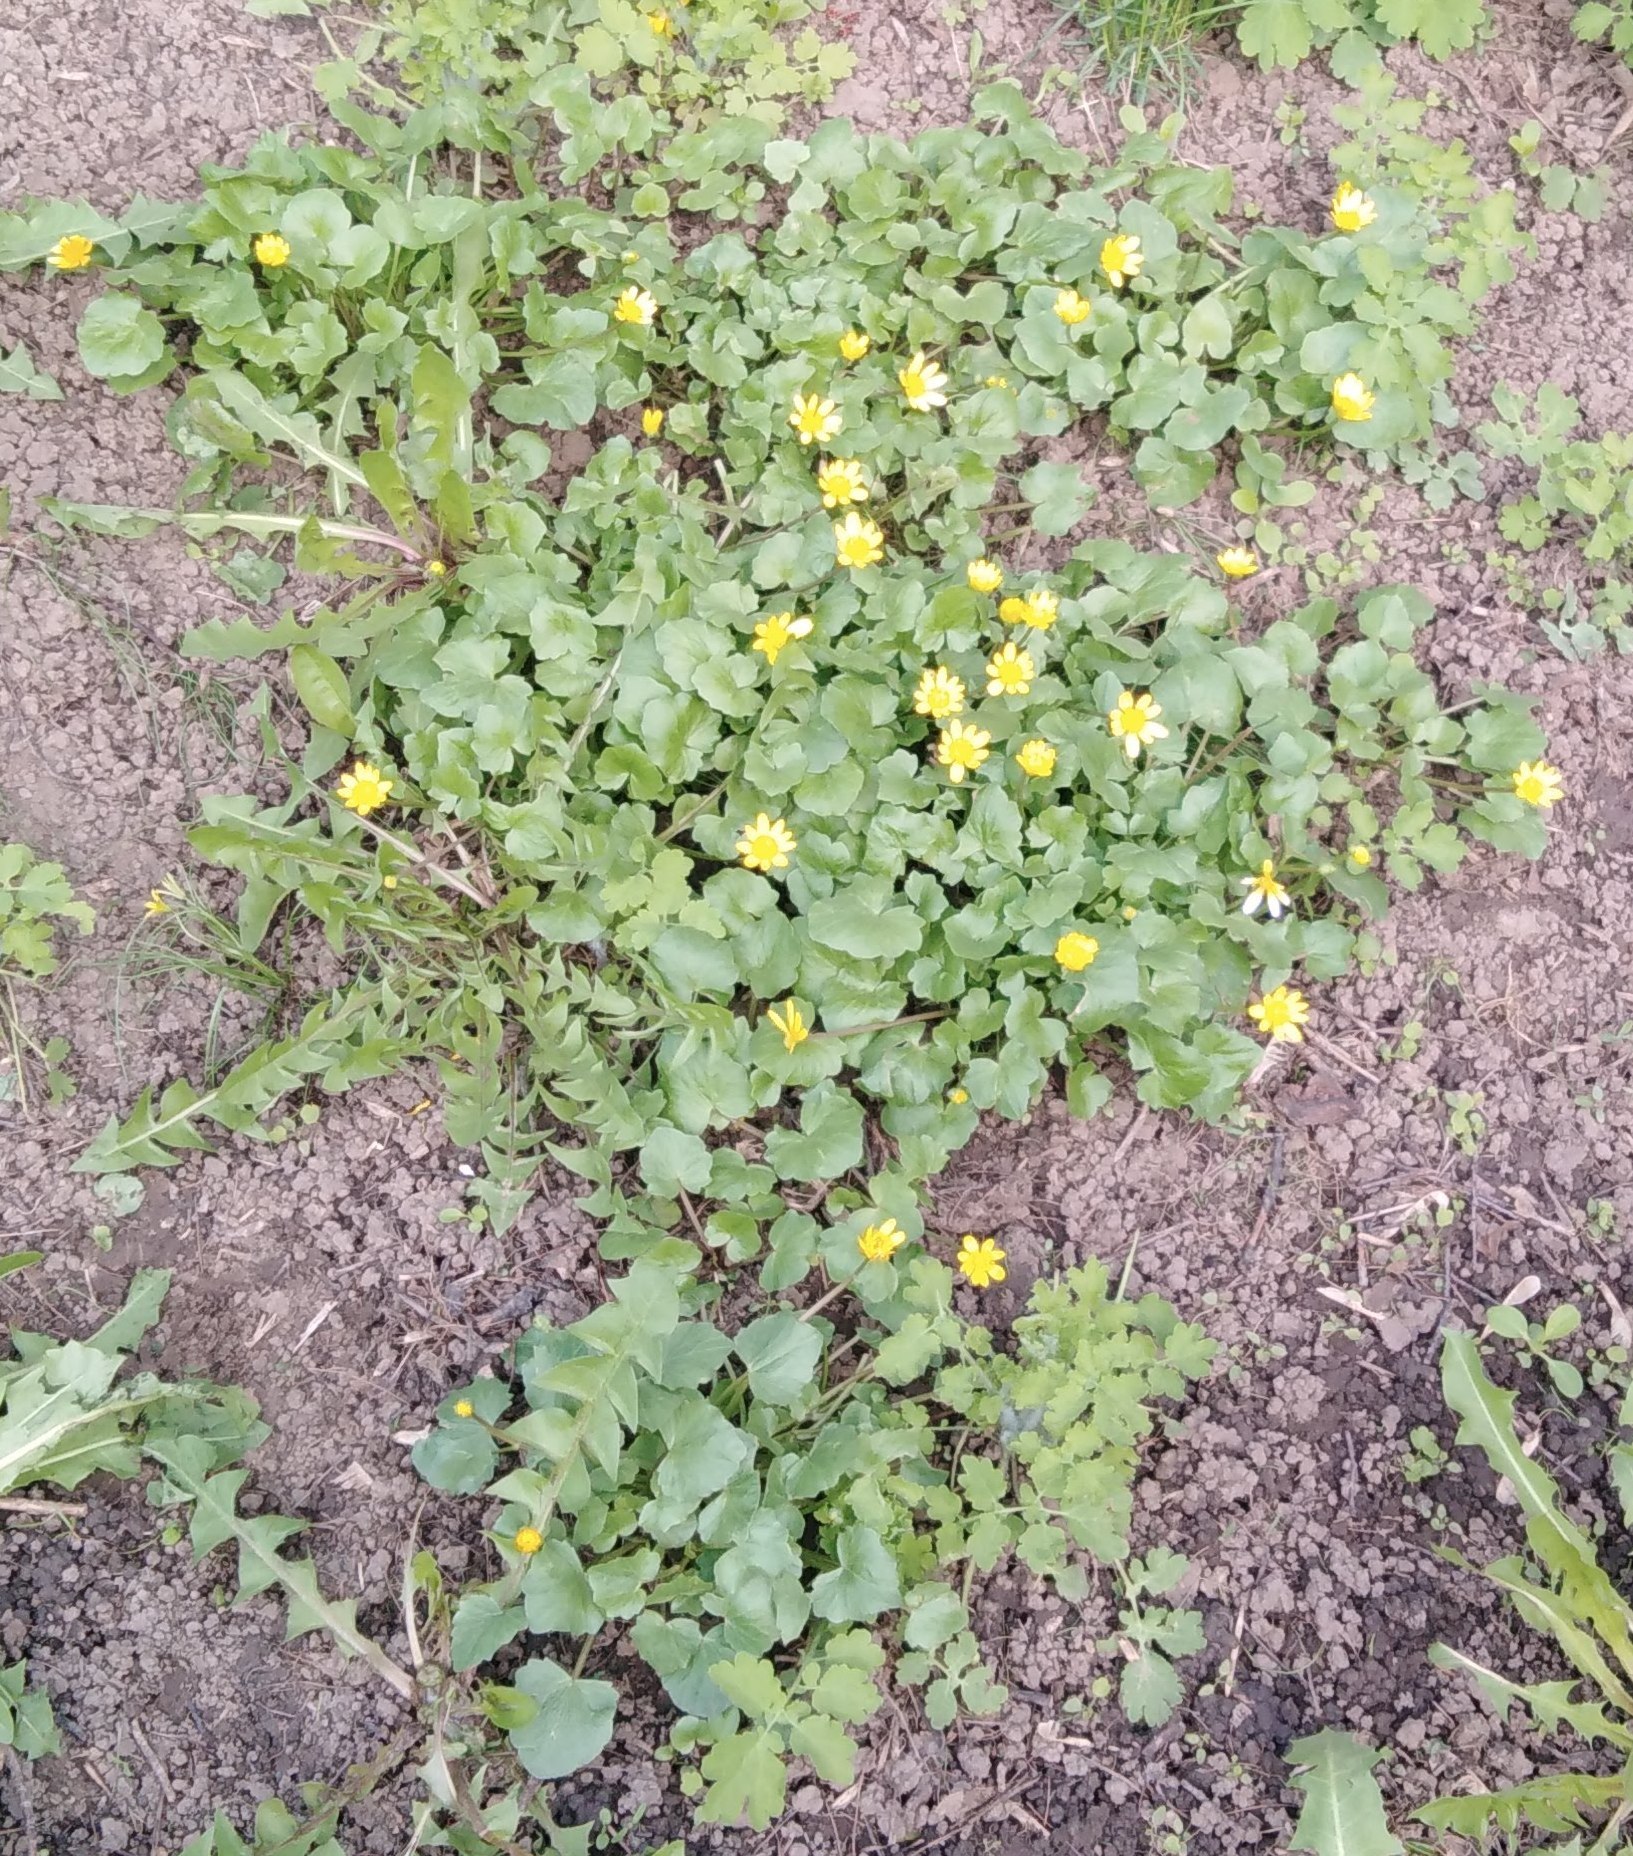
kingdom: Plantae
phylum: Tracheophyta
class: Magnoliopsida
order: Ranunculales
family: Ranunculaceae
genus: Ficaria
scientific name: Ficaria verna
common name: Lesser celandine
